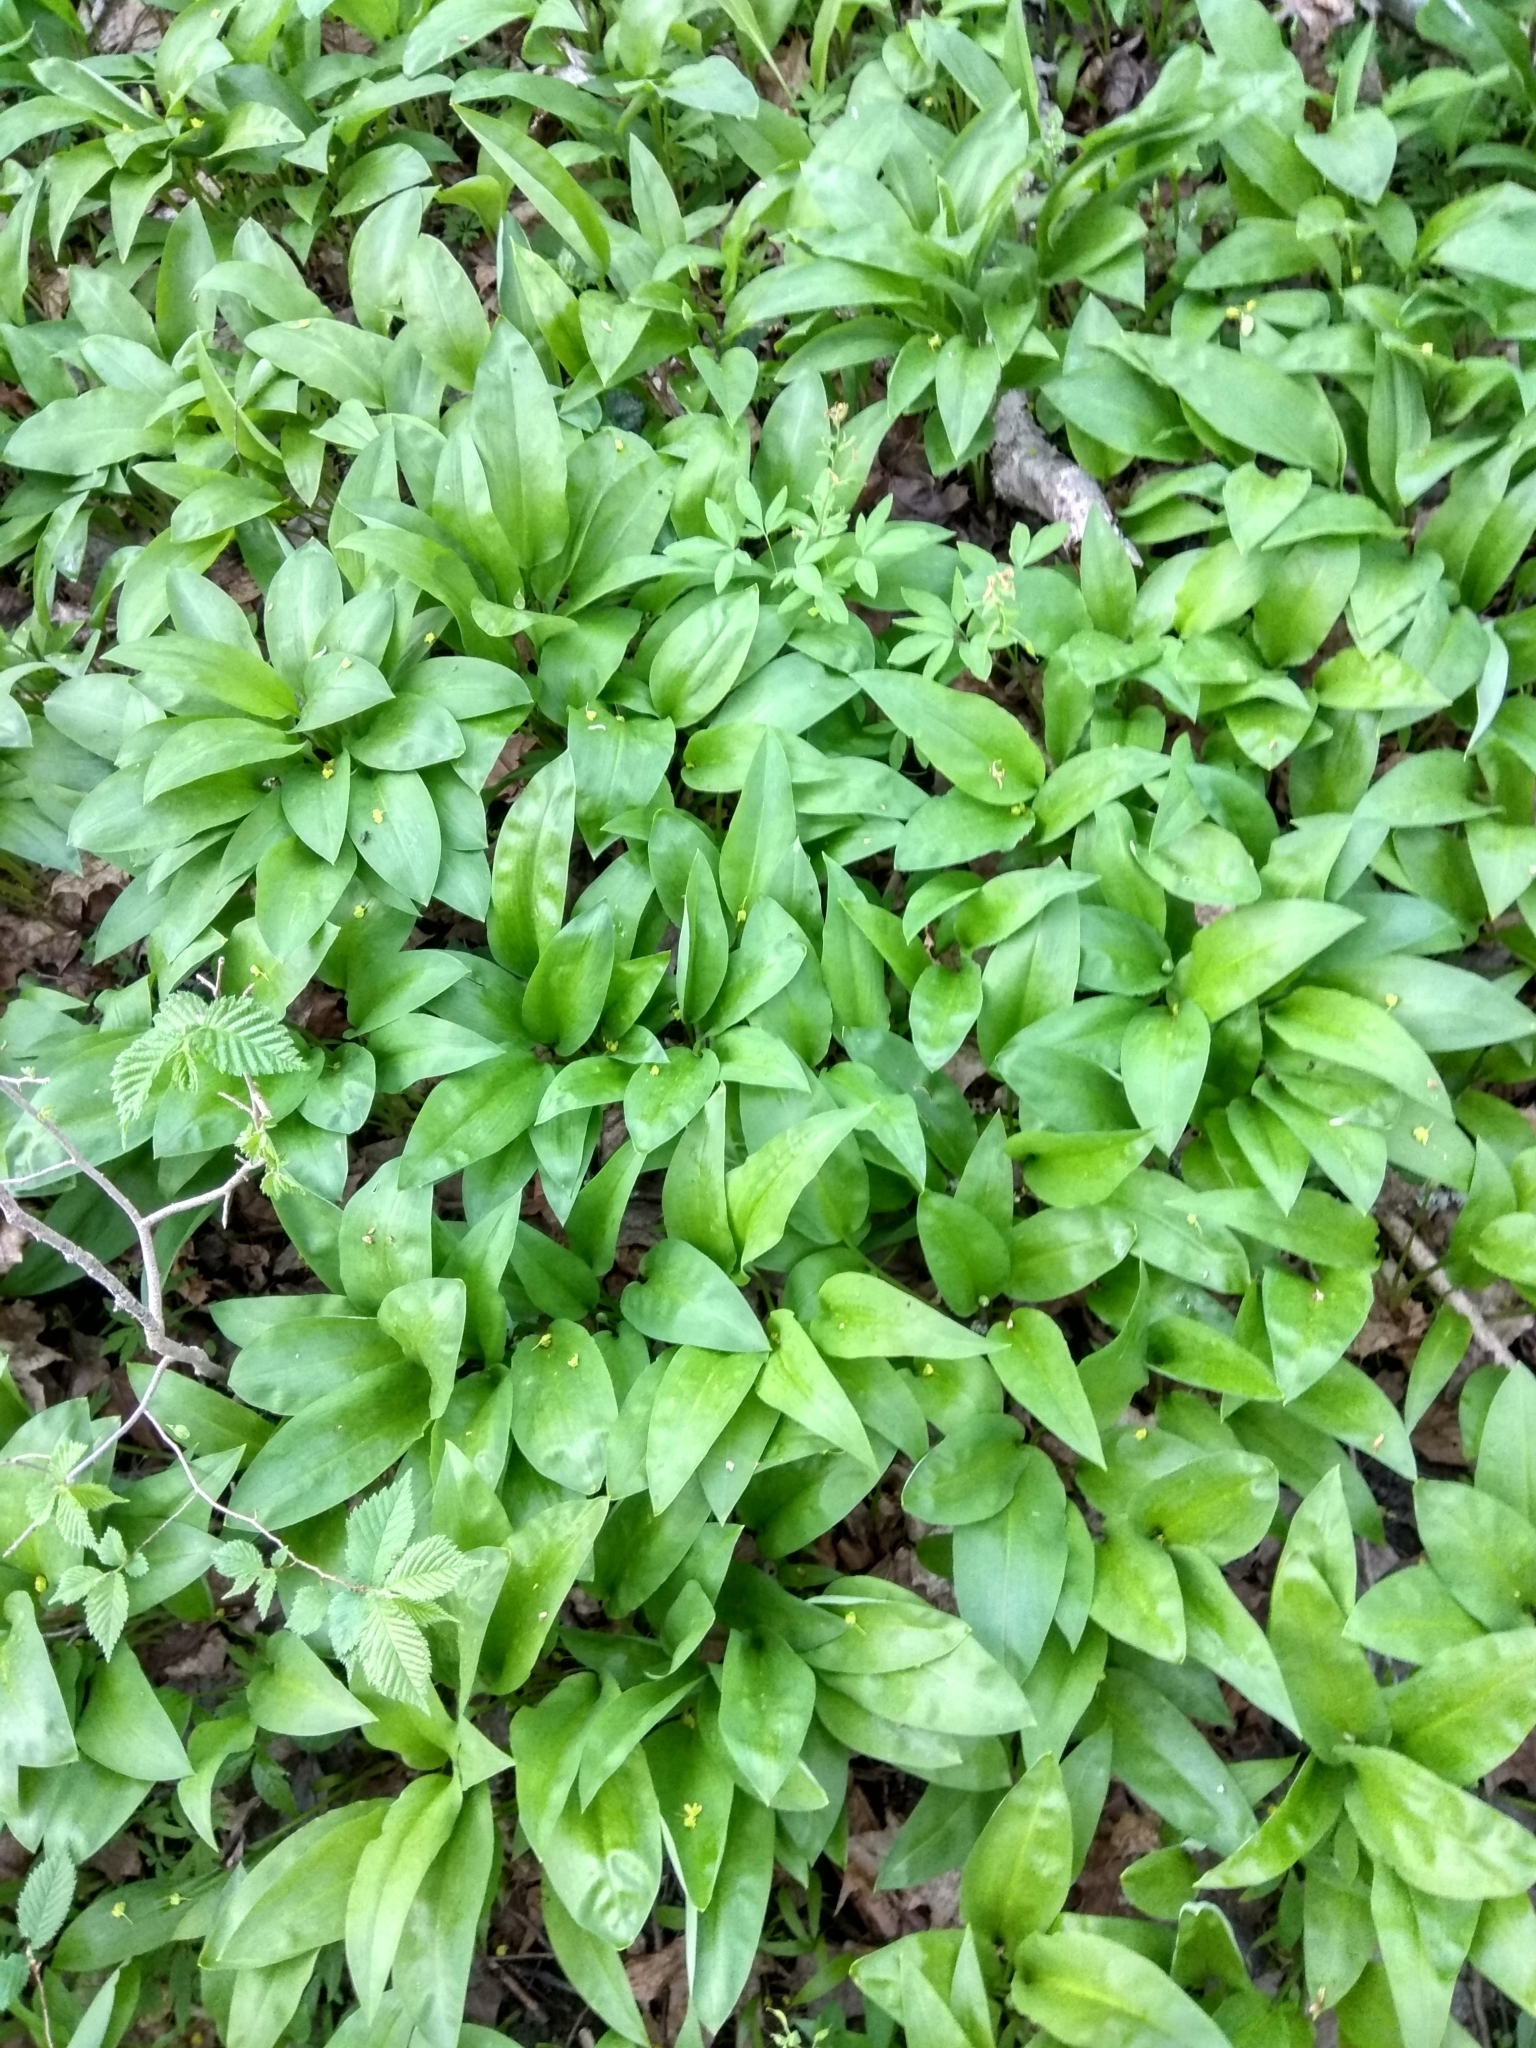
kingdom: Plantae
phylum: Tracheophyta
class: Liliopsida
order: Asparagales
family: Amaryllidaceae
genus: Allium
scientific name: Allium ursinum
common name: Ramsons
